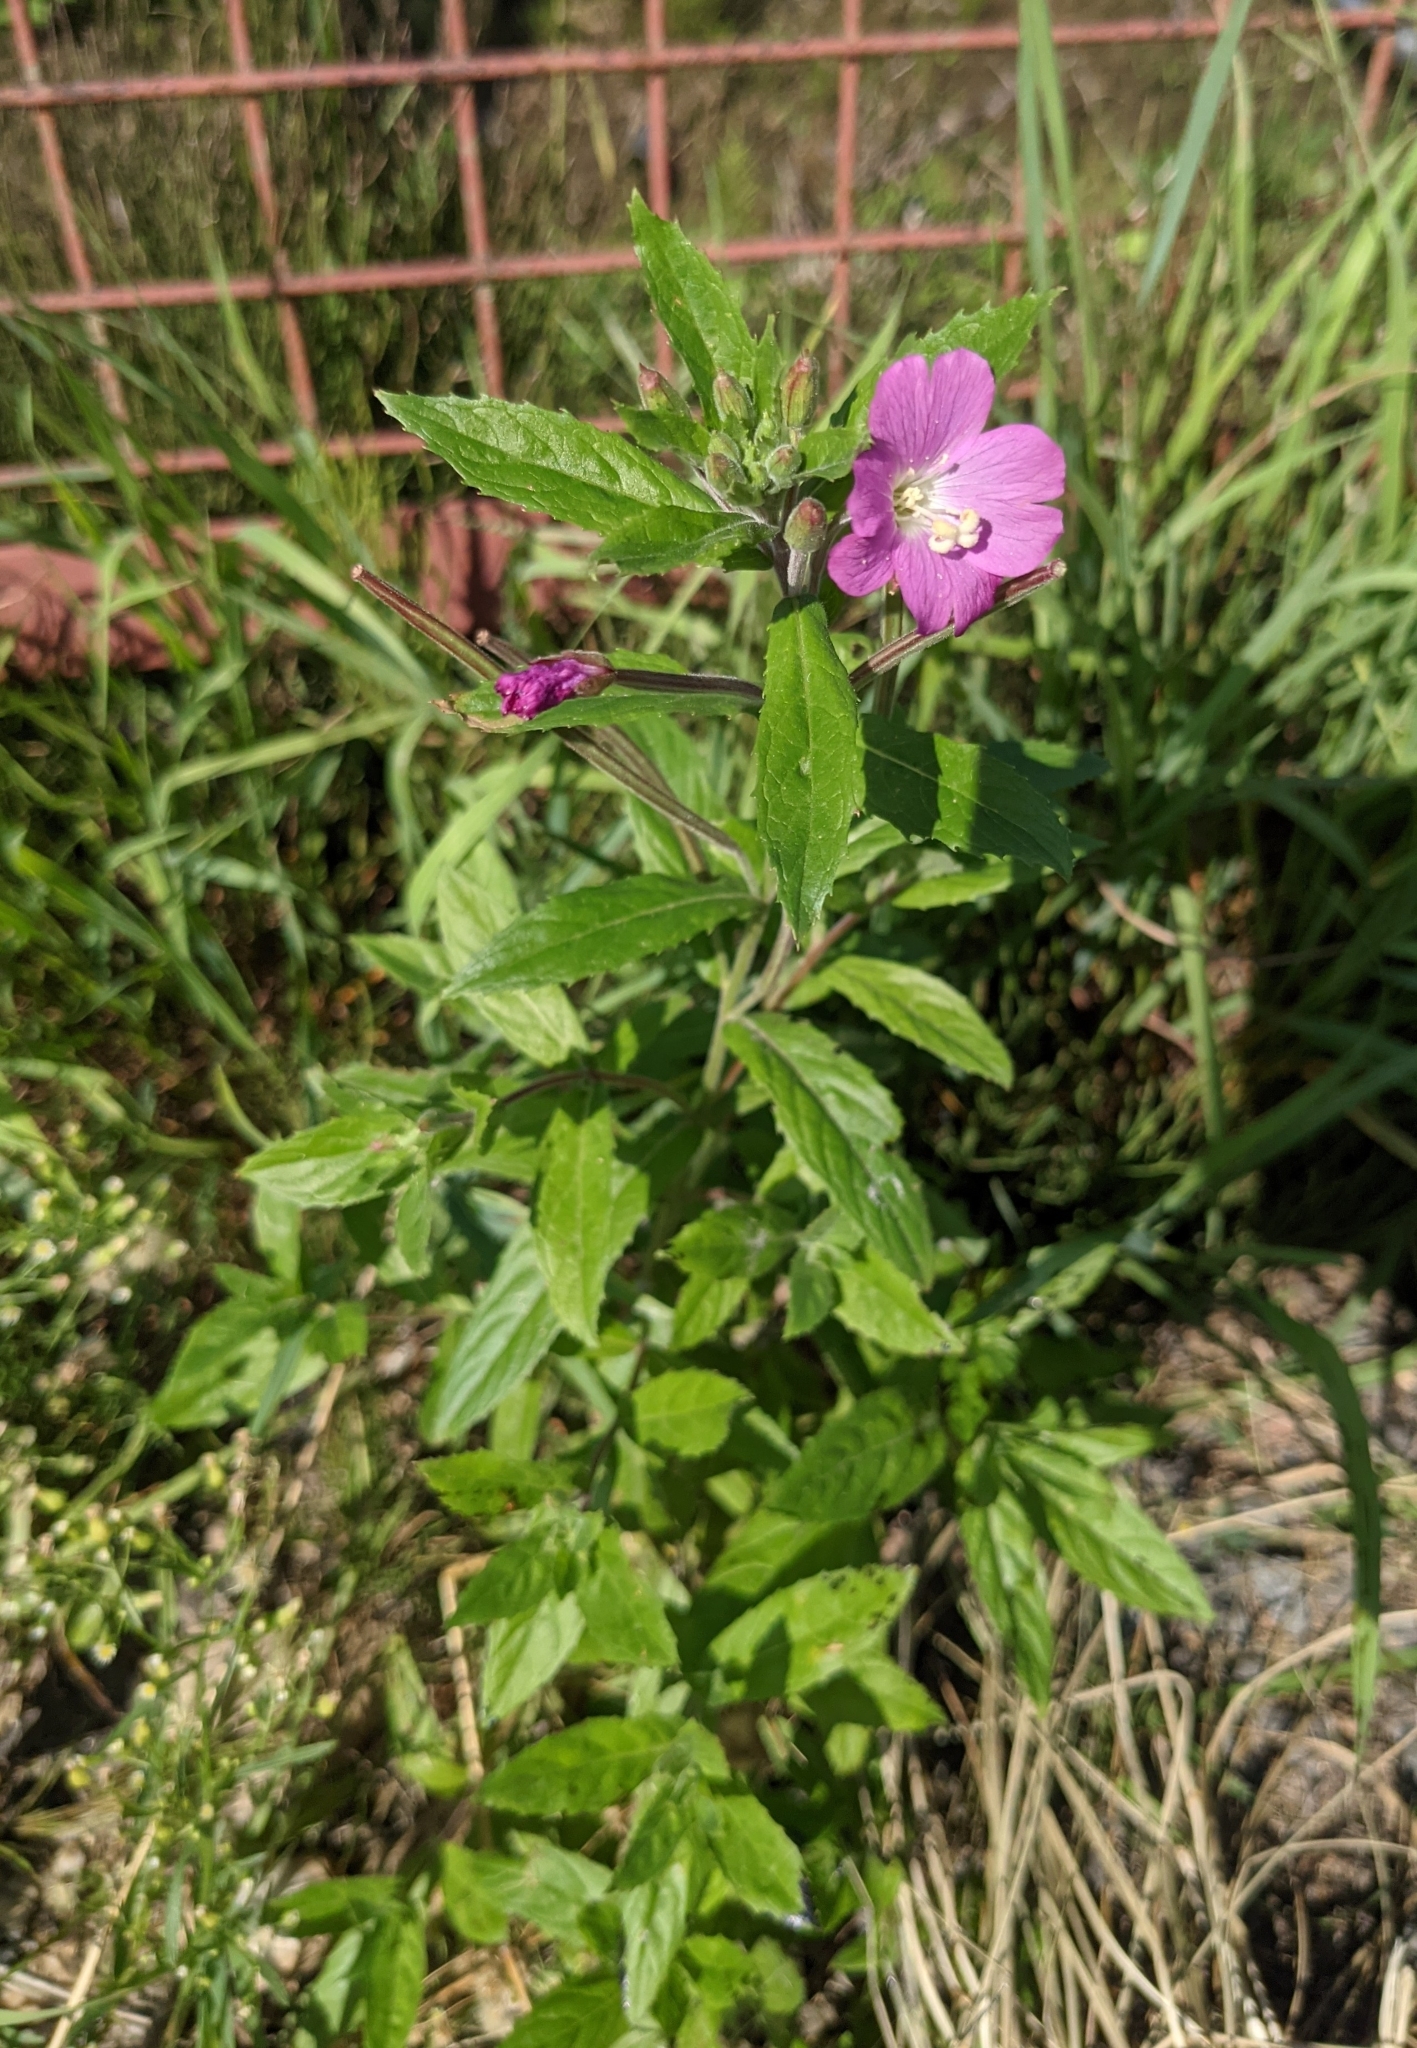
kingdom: Plantae
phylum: Tracheophyta
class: Magnoliopsida
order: Myrtales
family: Onagraceae
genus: Epilobium
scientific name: Epilobium hirsutum
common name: Great willowherb
